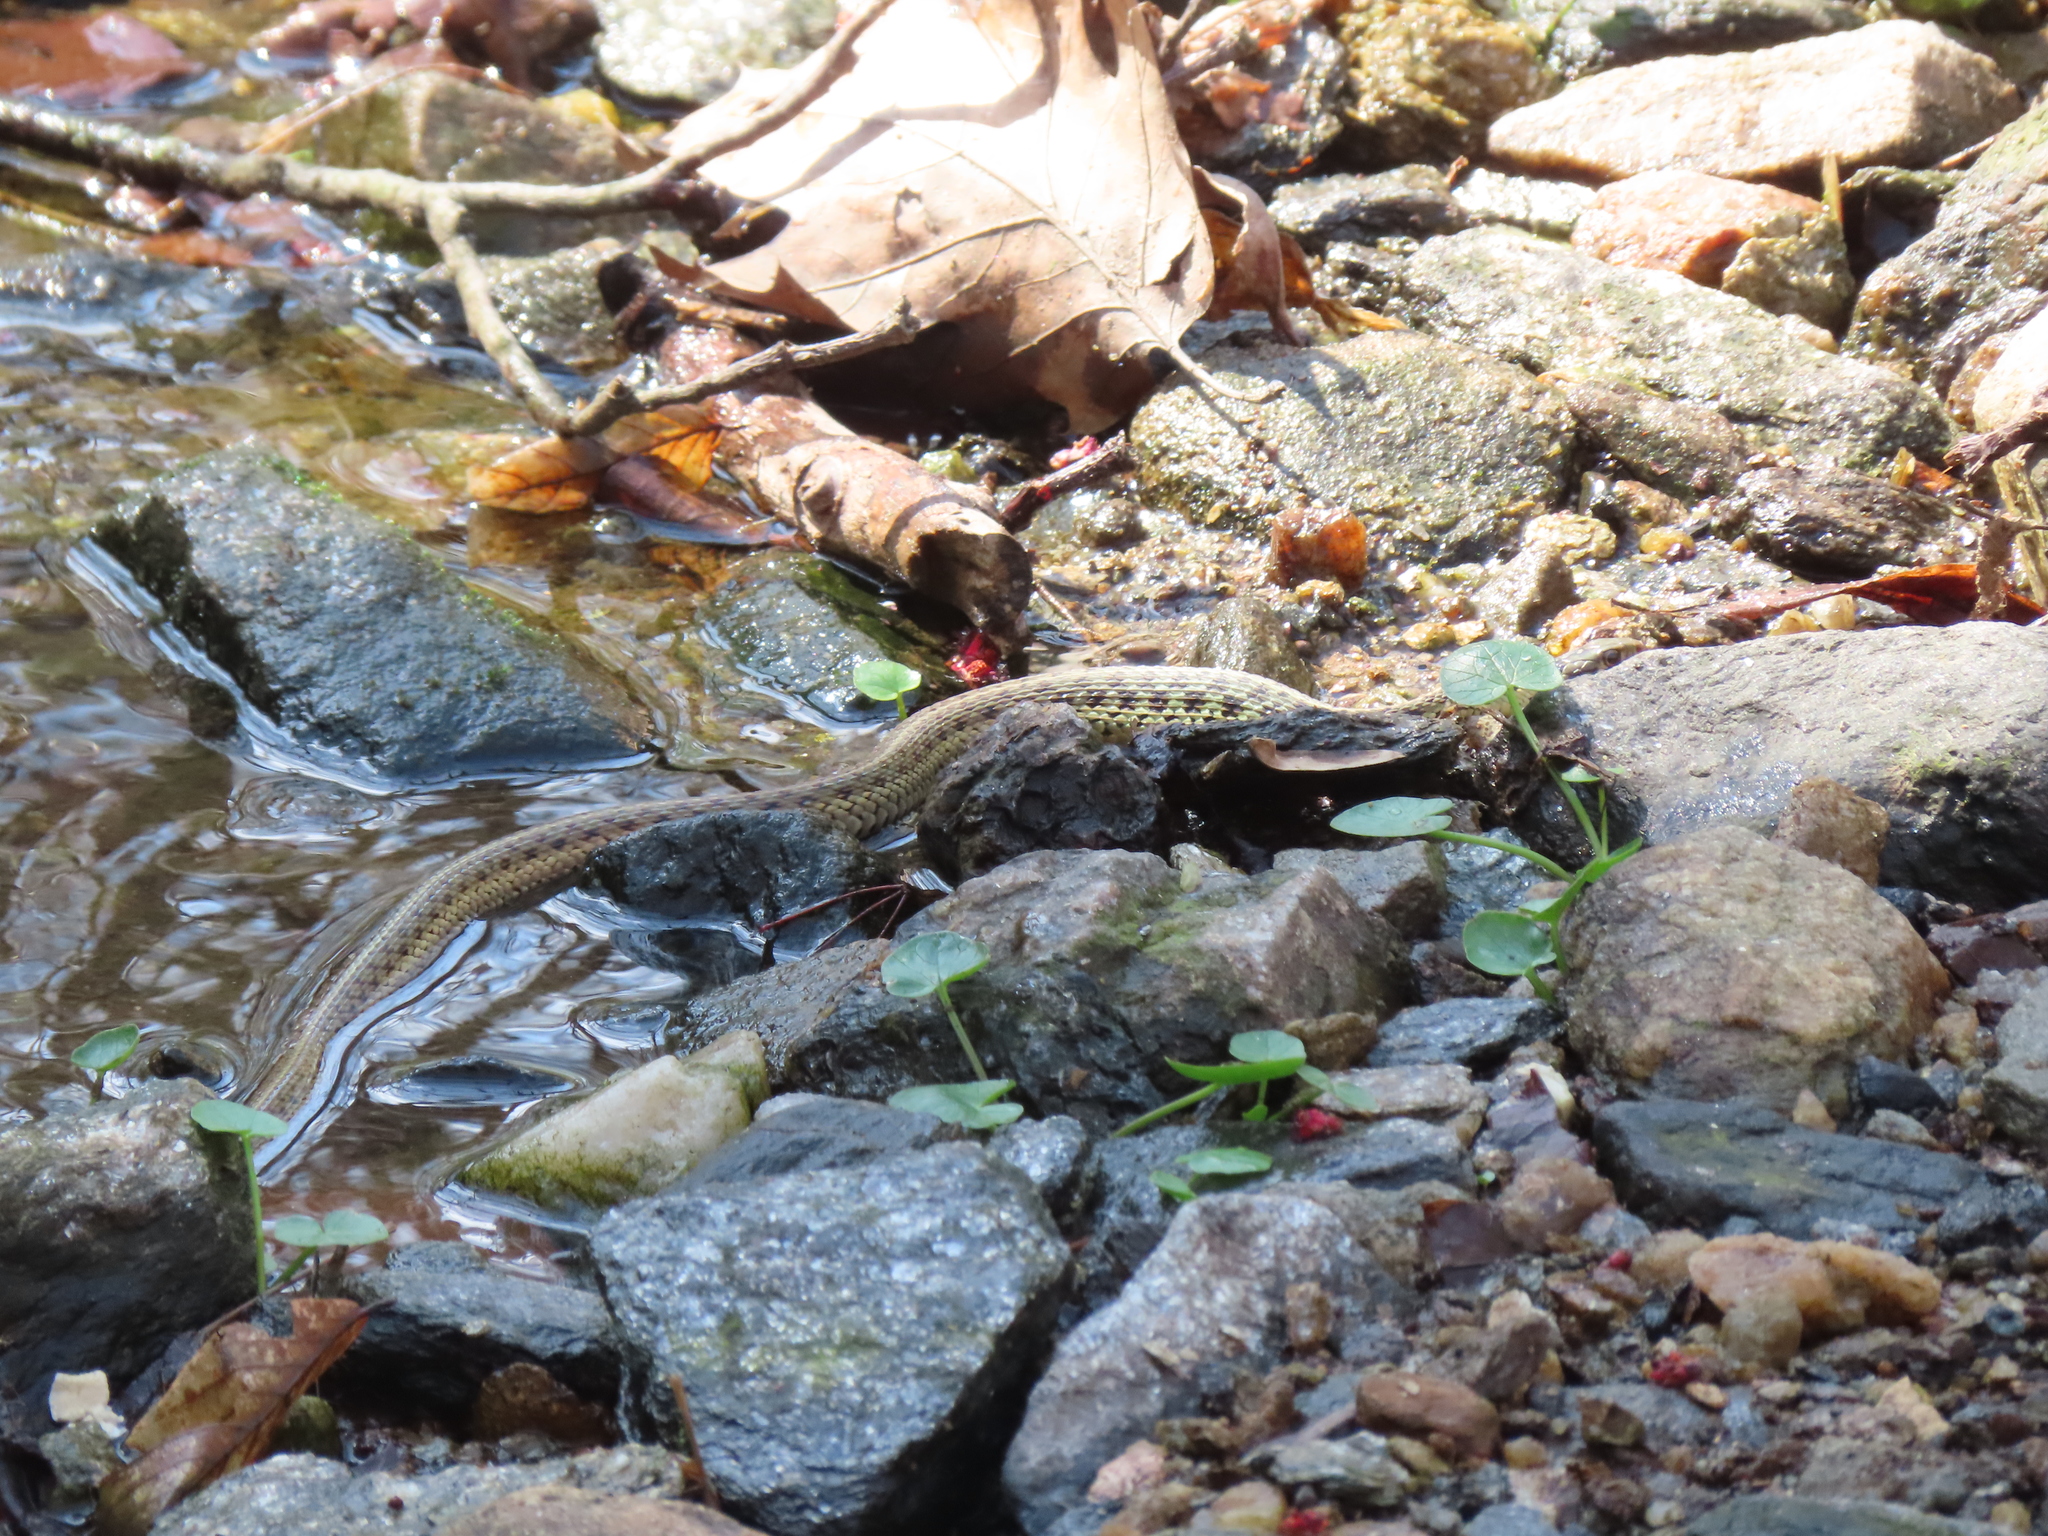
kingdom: Animalia
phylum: Chordata
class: Squamata
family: Colubridae
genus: Thamnophis
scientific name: Thamnophis sirtalis
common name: Common garter snake
